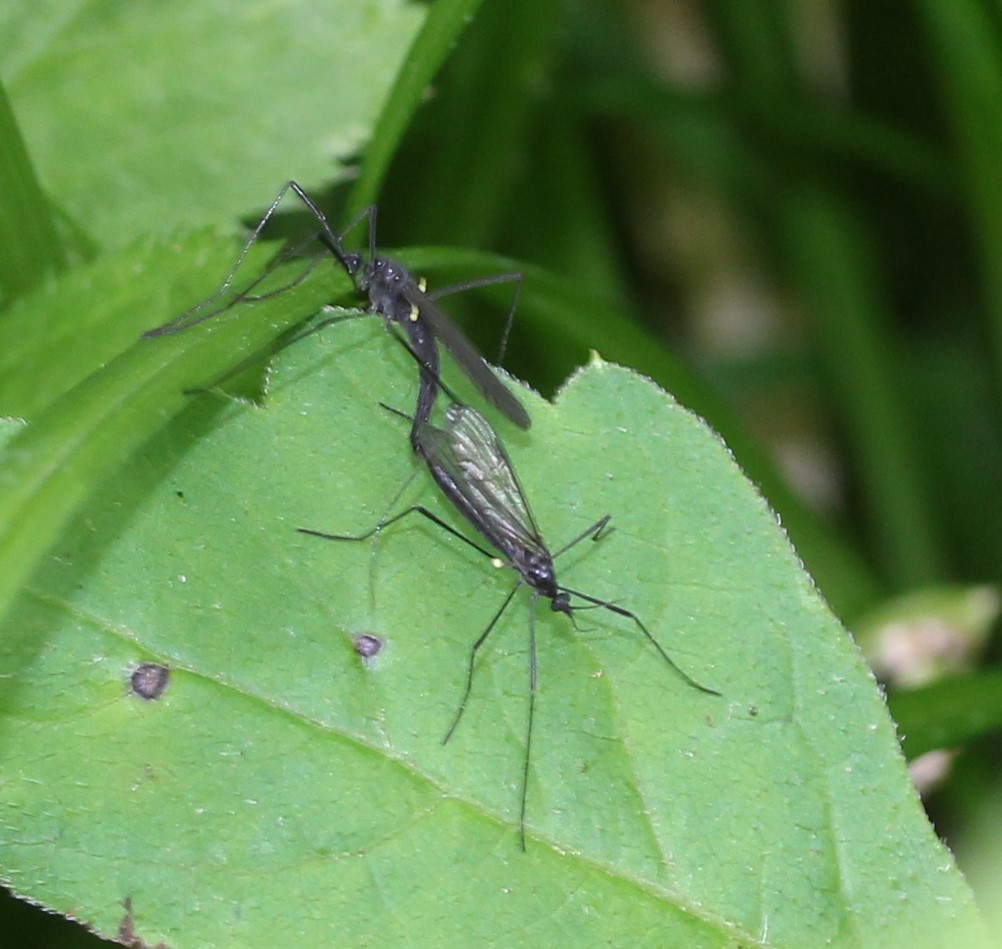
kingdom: Animalia
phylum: Arthropoda
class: Insecta
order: Diptera
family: Limoniidae
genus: Gnophomyia
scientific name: Gnophomyia tristissima
